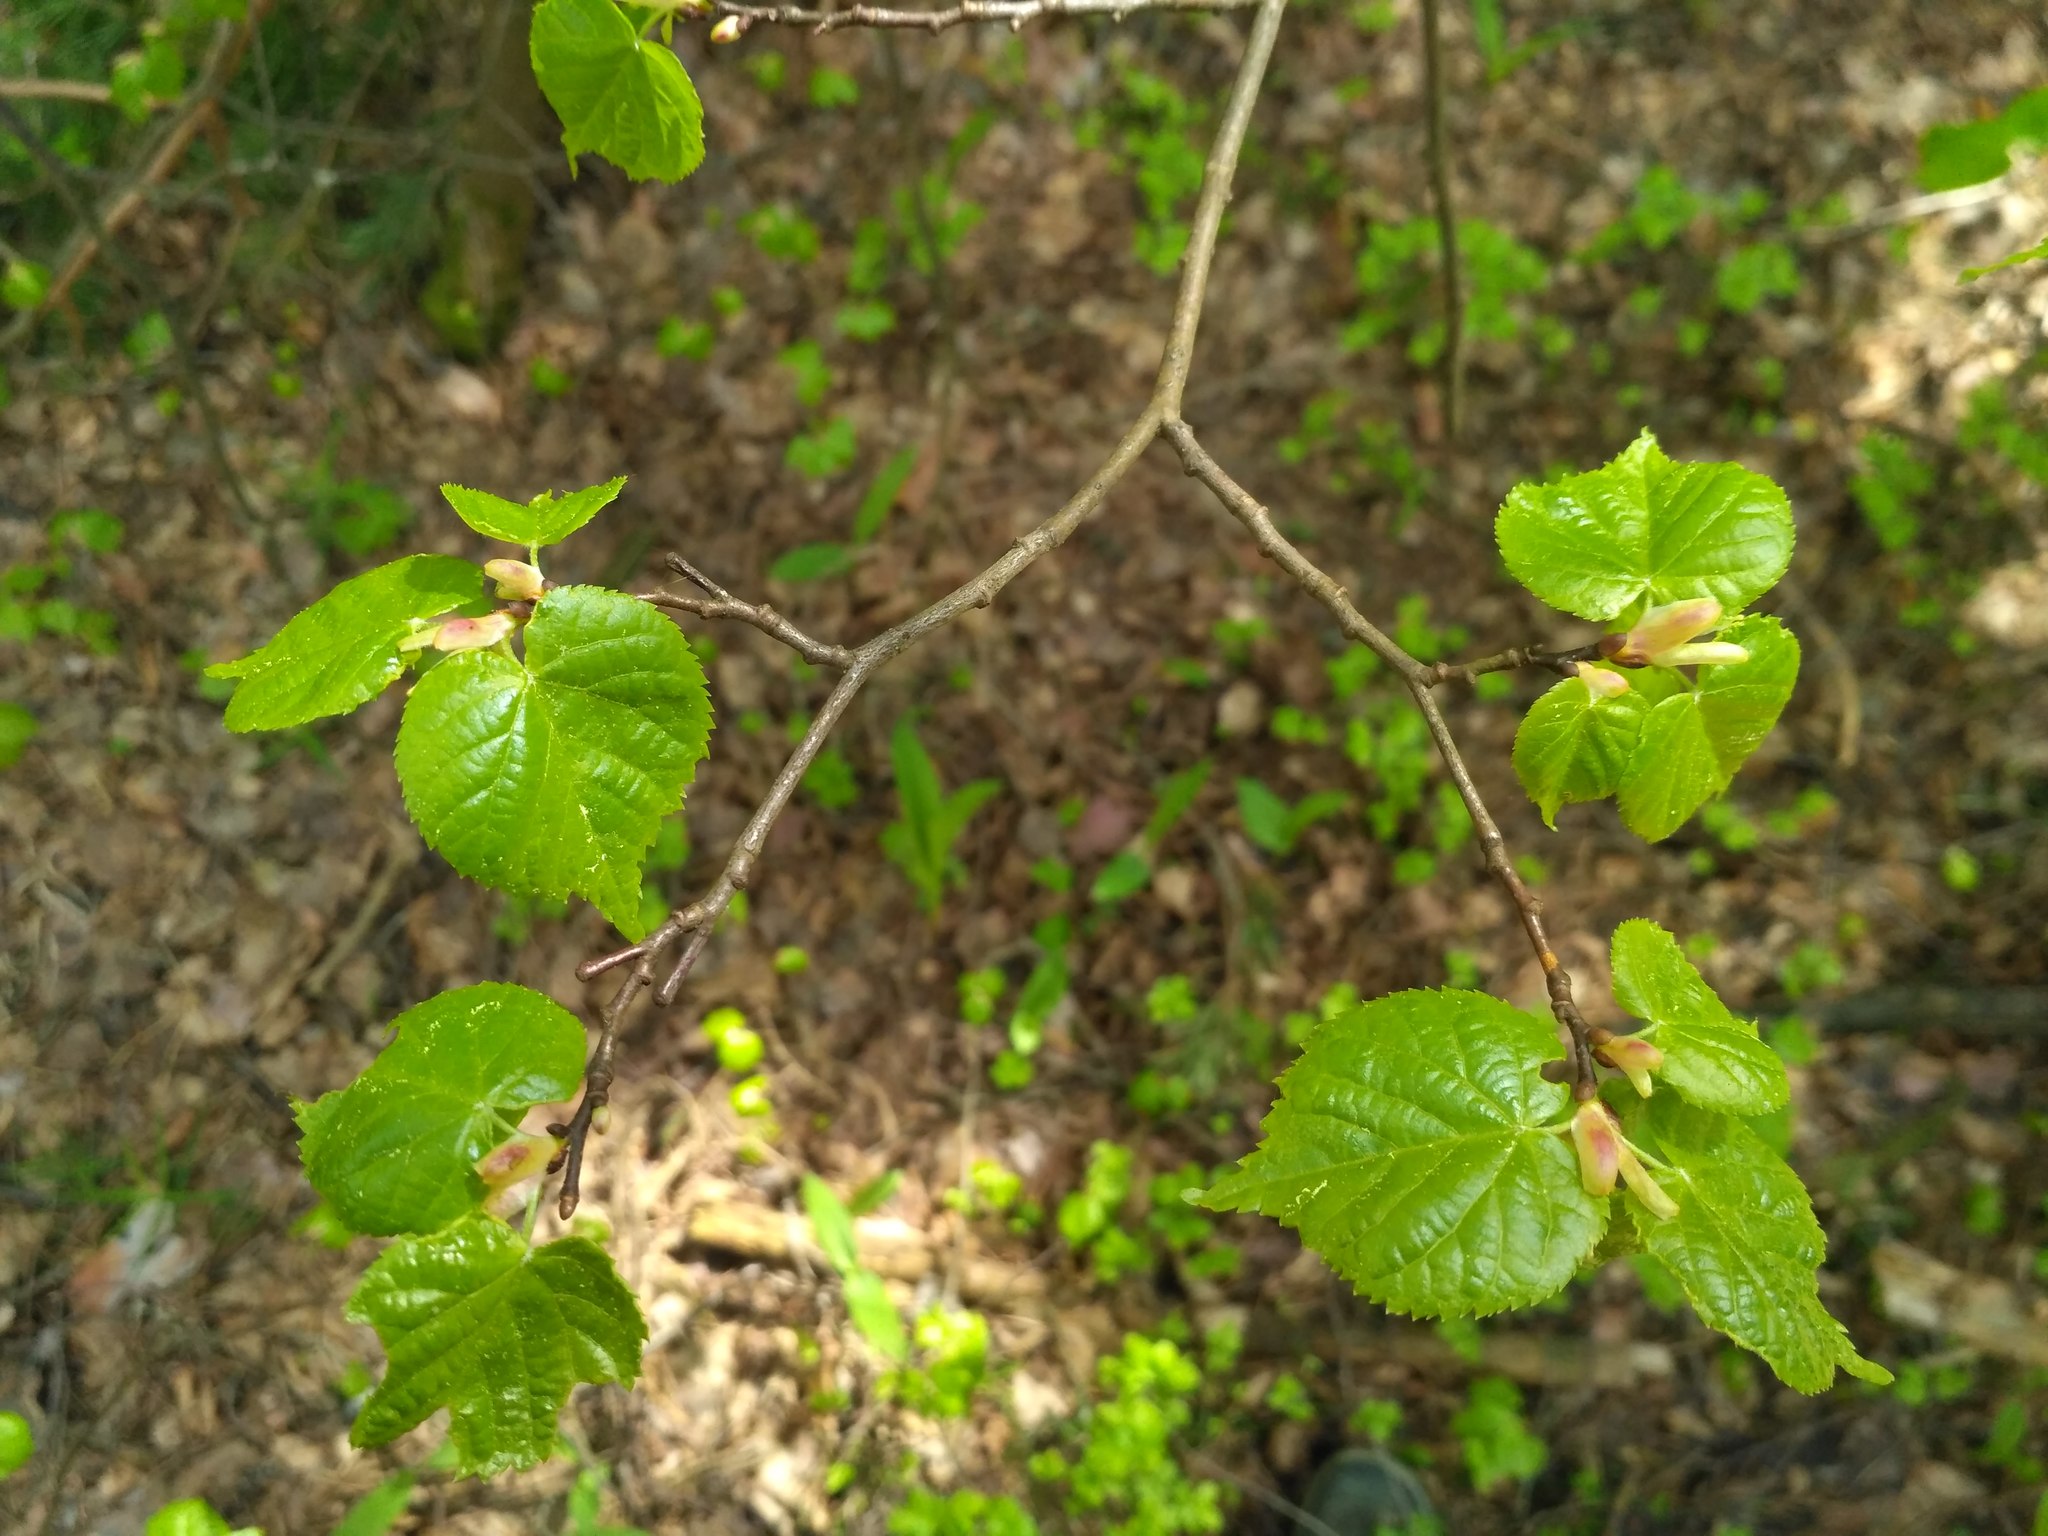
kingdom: Plantae
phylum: Tracheophyta
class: Magnoliopsida
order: Malvales
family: Malvaceae
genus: Tilia
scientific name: Tilia cordata
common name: Small-leaved lime
